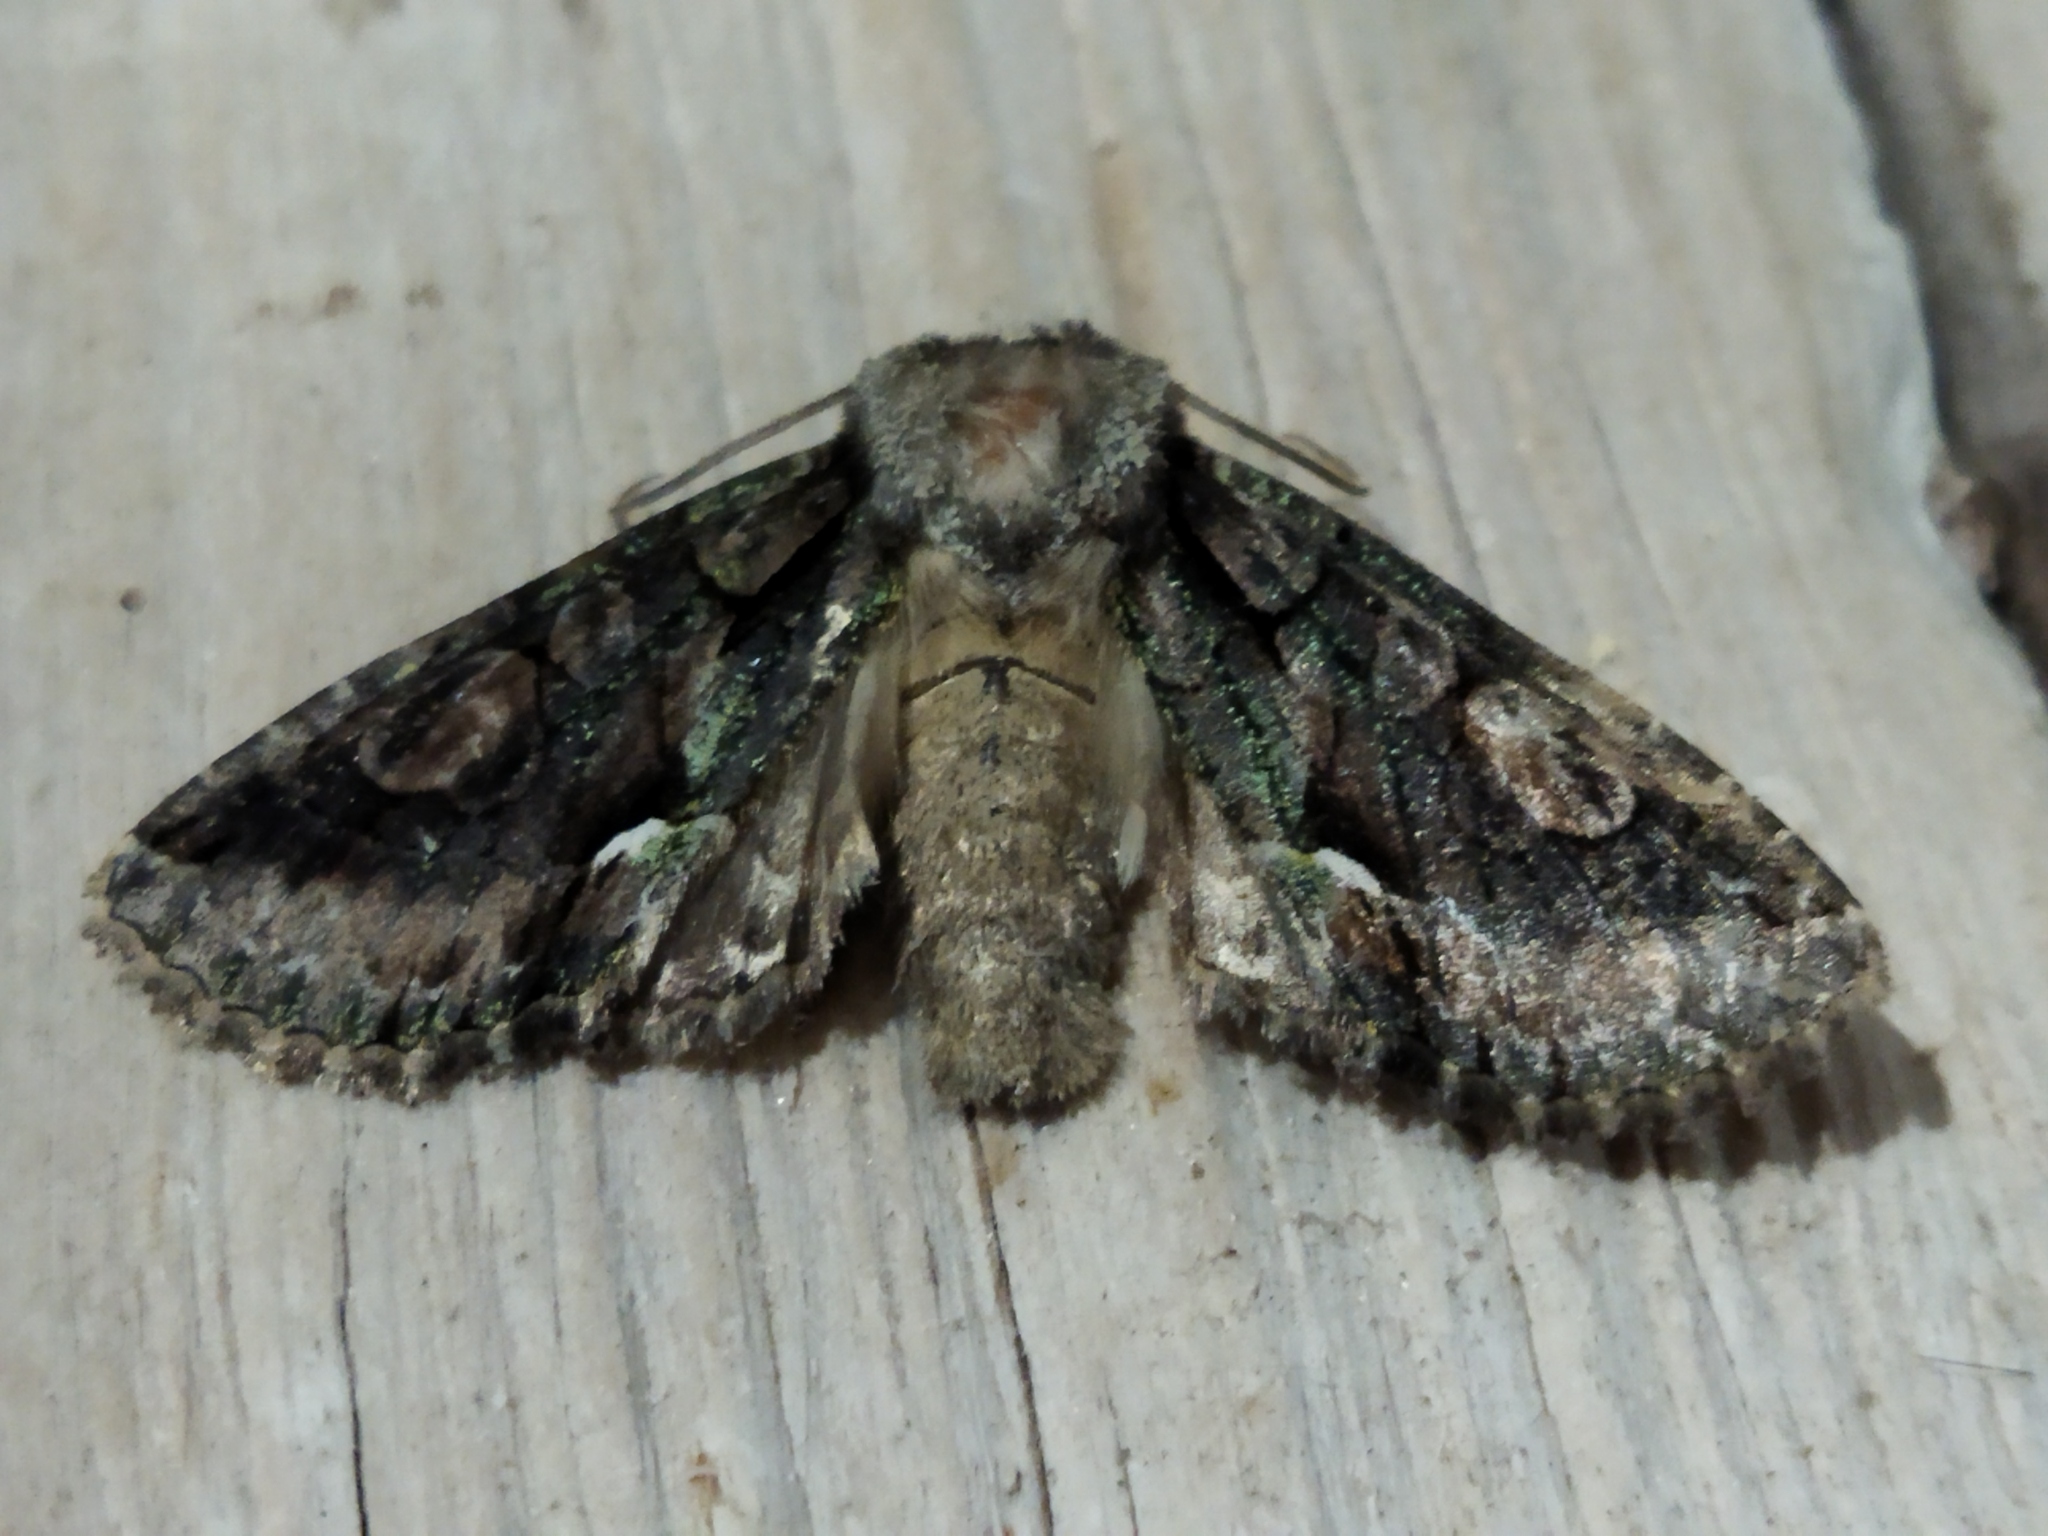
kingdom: Animalia
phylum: Arthropoda
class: Insecta
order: Lepidoptera
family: Noctuidae
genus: Allophyes
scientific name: Allophyes oxyacanthae
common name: Green-brindled crescent
